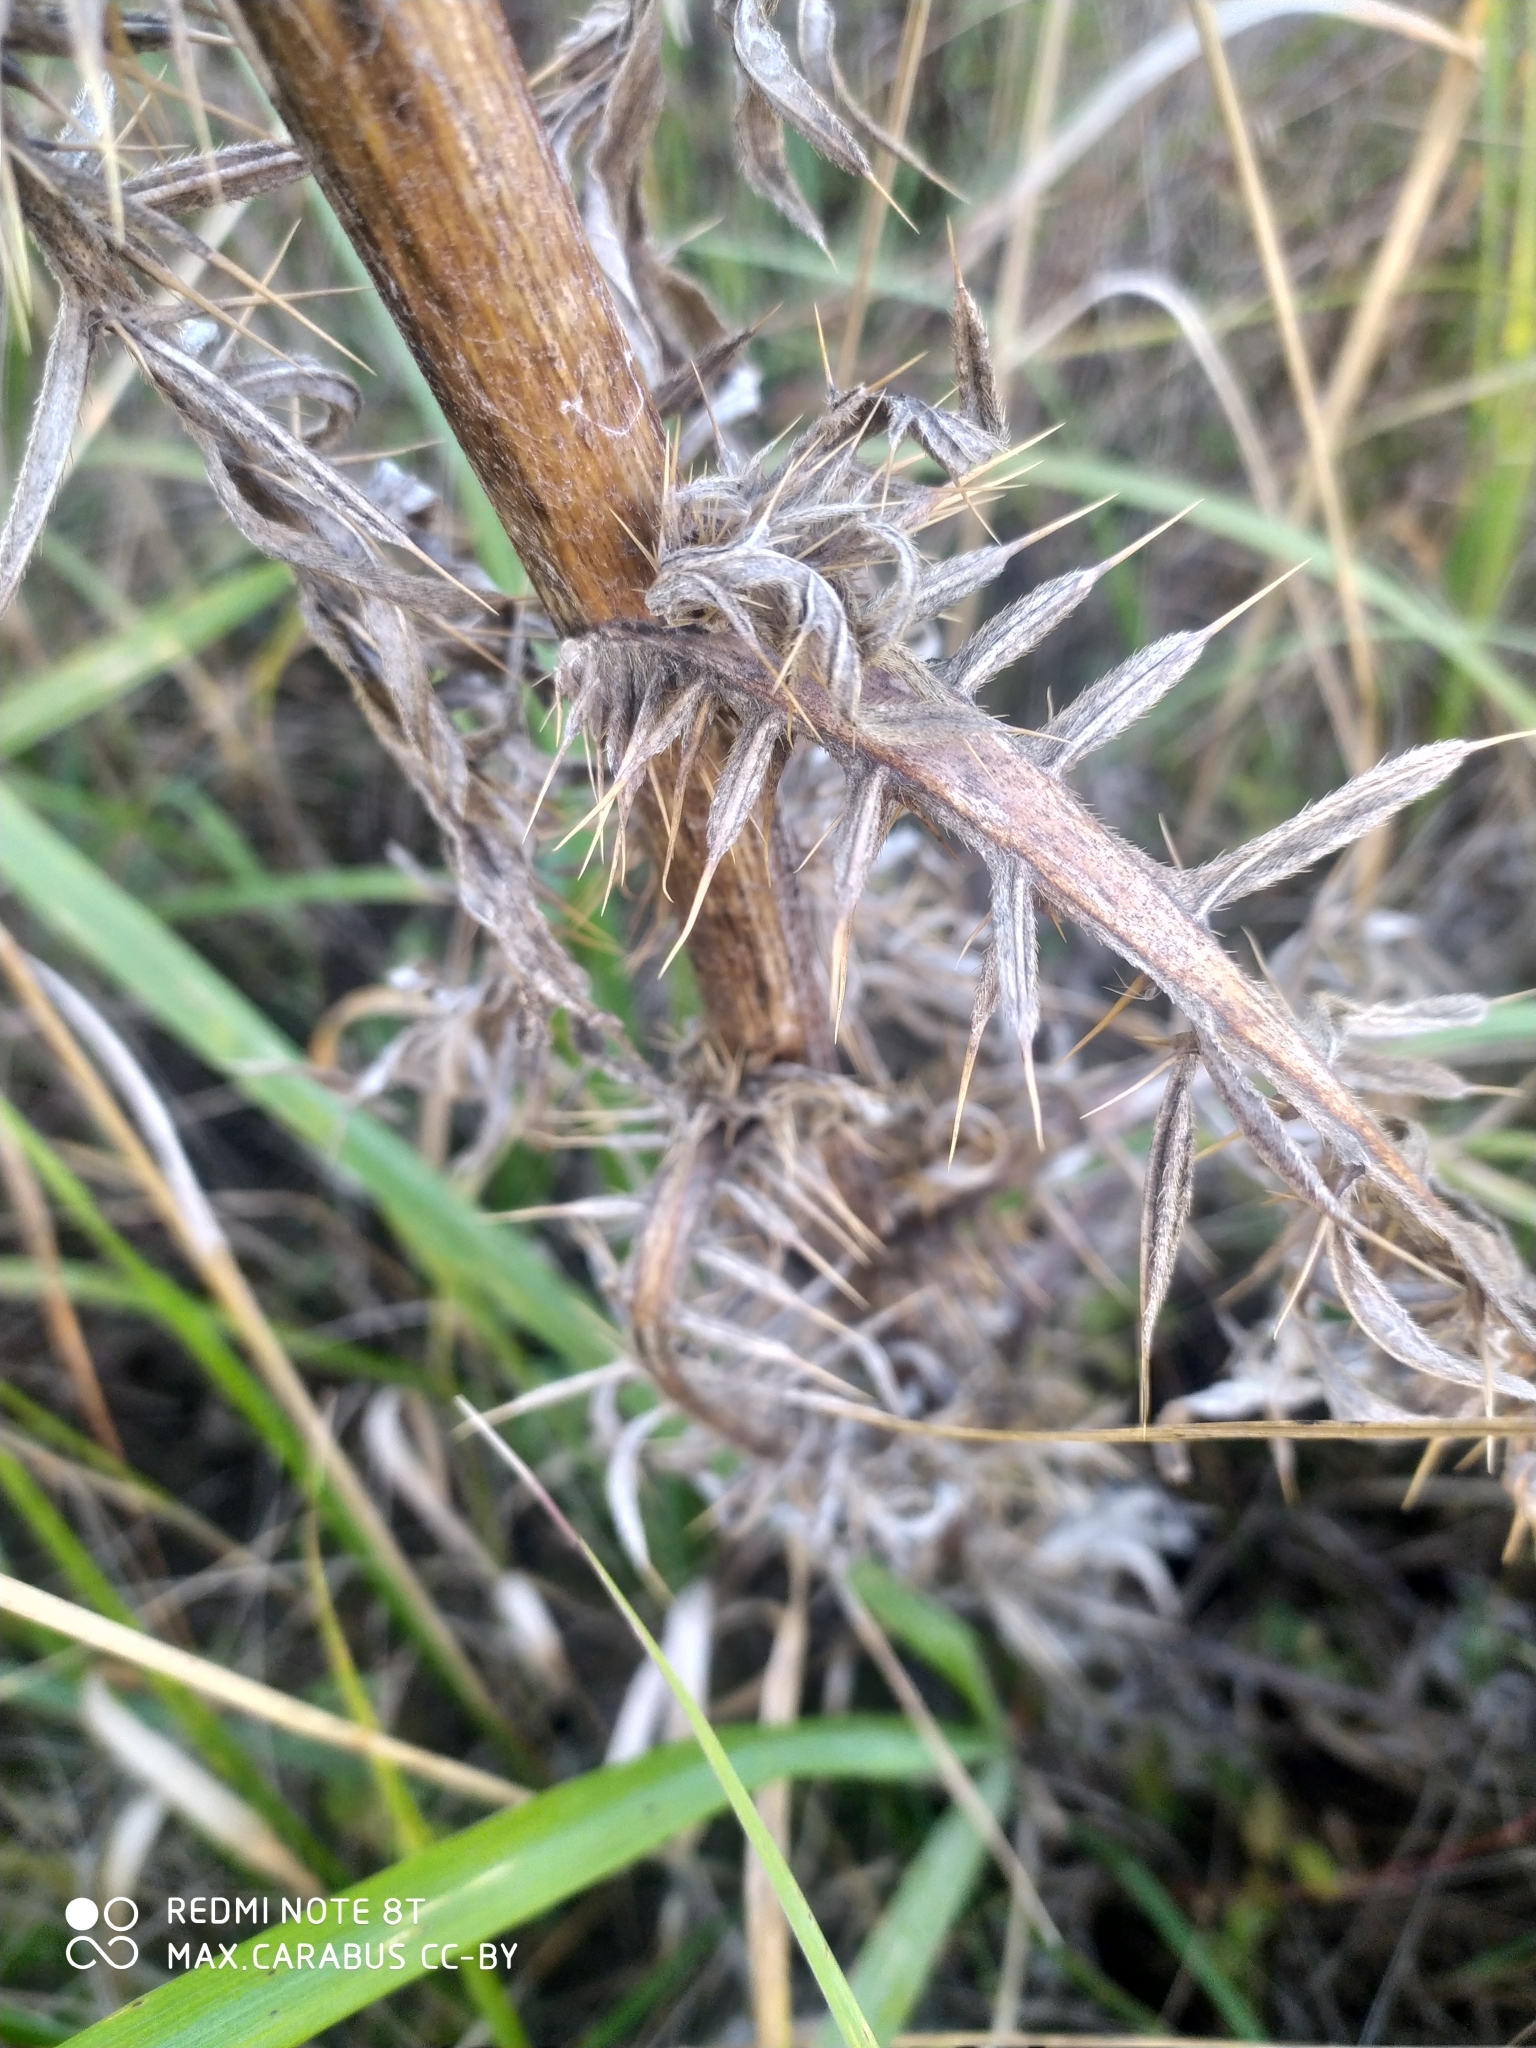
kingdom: Plantae
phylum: Tracheophyta
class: Magnoliopsida
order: Asterales
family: Asteraceae
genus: Lophiolepis
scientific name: Lophiolepis decussata
